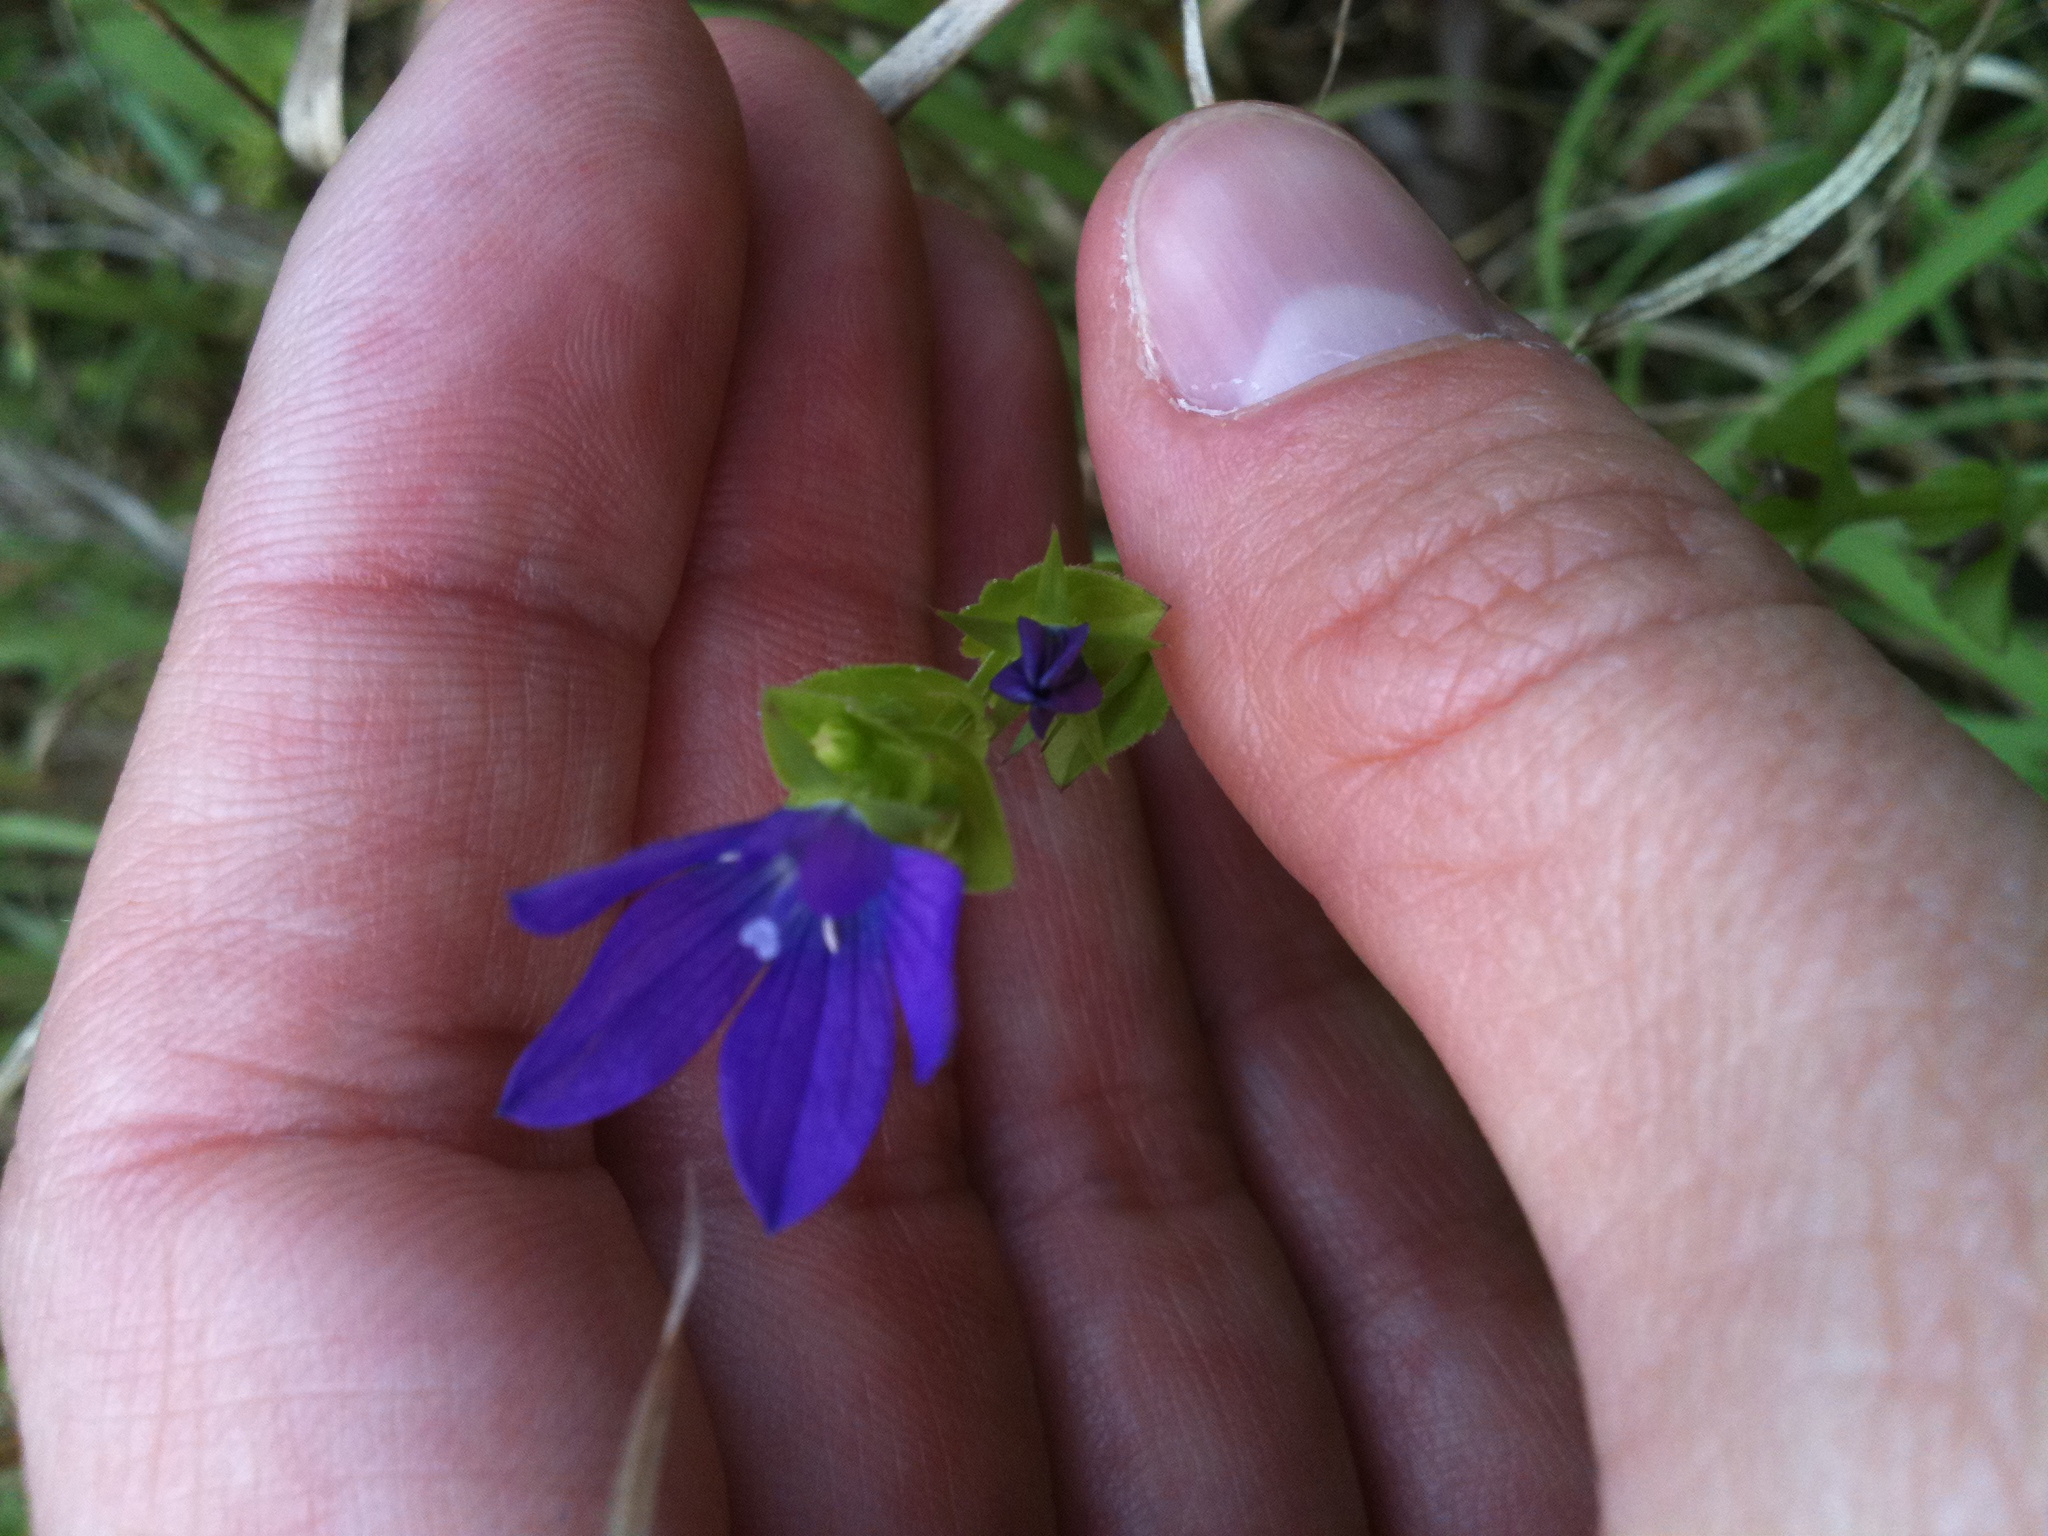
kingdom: Plantae
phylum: Tracheophyta
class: Magnoliopsida
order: Asterales
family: Campanulaceae
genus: Triodanis
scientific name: Triodanis perfoliata
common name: Clasping venus' looking-glass
